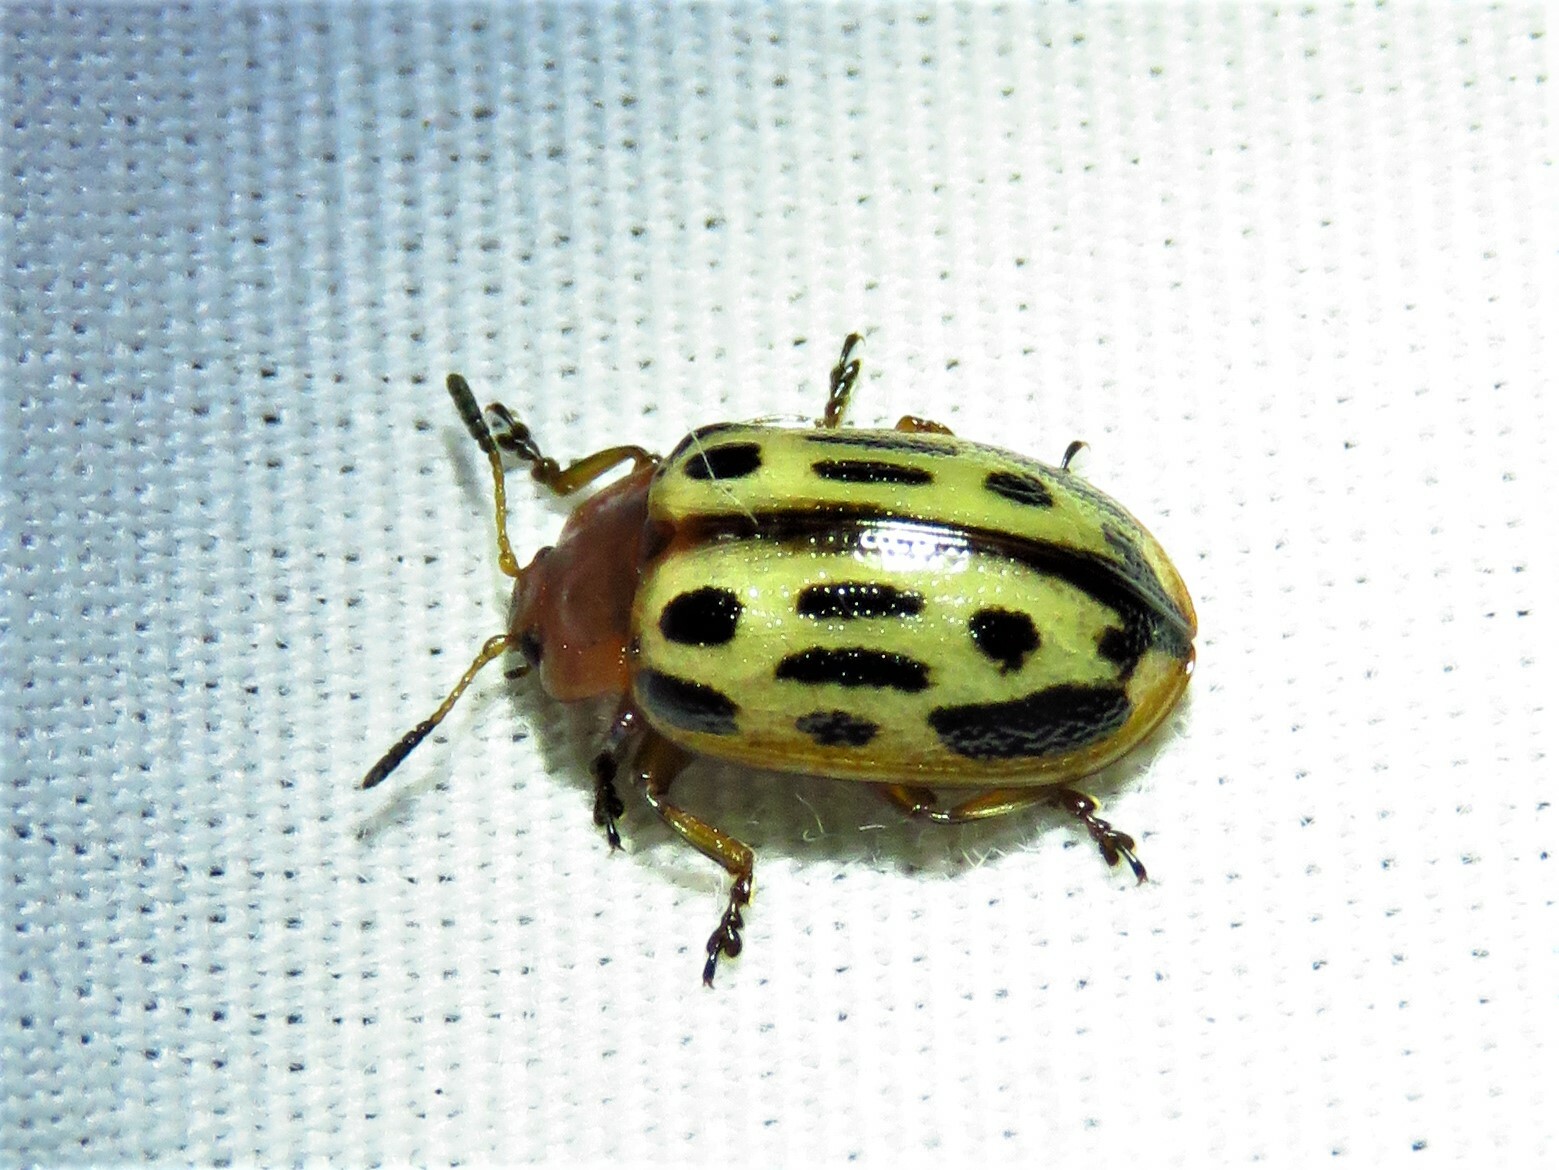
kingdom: Animalia
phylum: Arthropoda
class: Insecta
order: Coleoptera
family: Chrysomelidae
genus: Chrysomela
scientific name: Chrysomela texana
